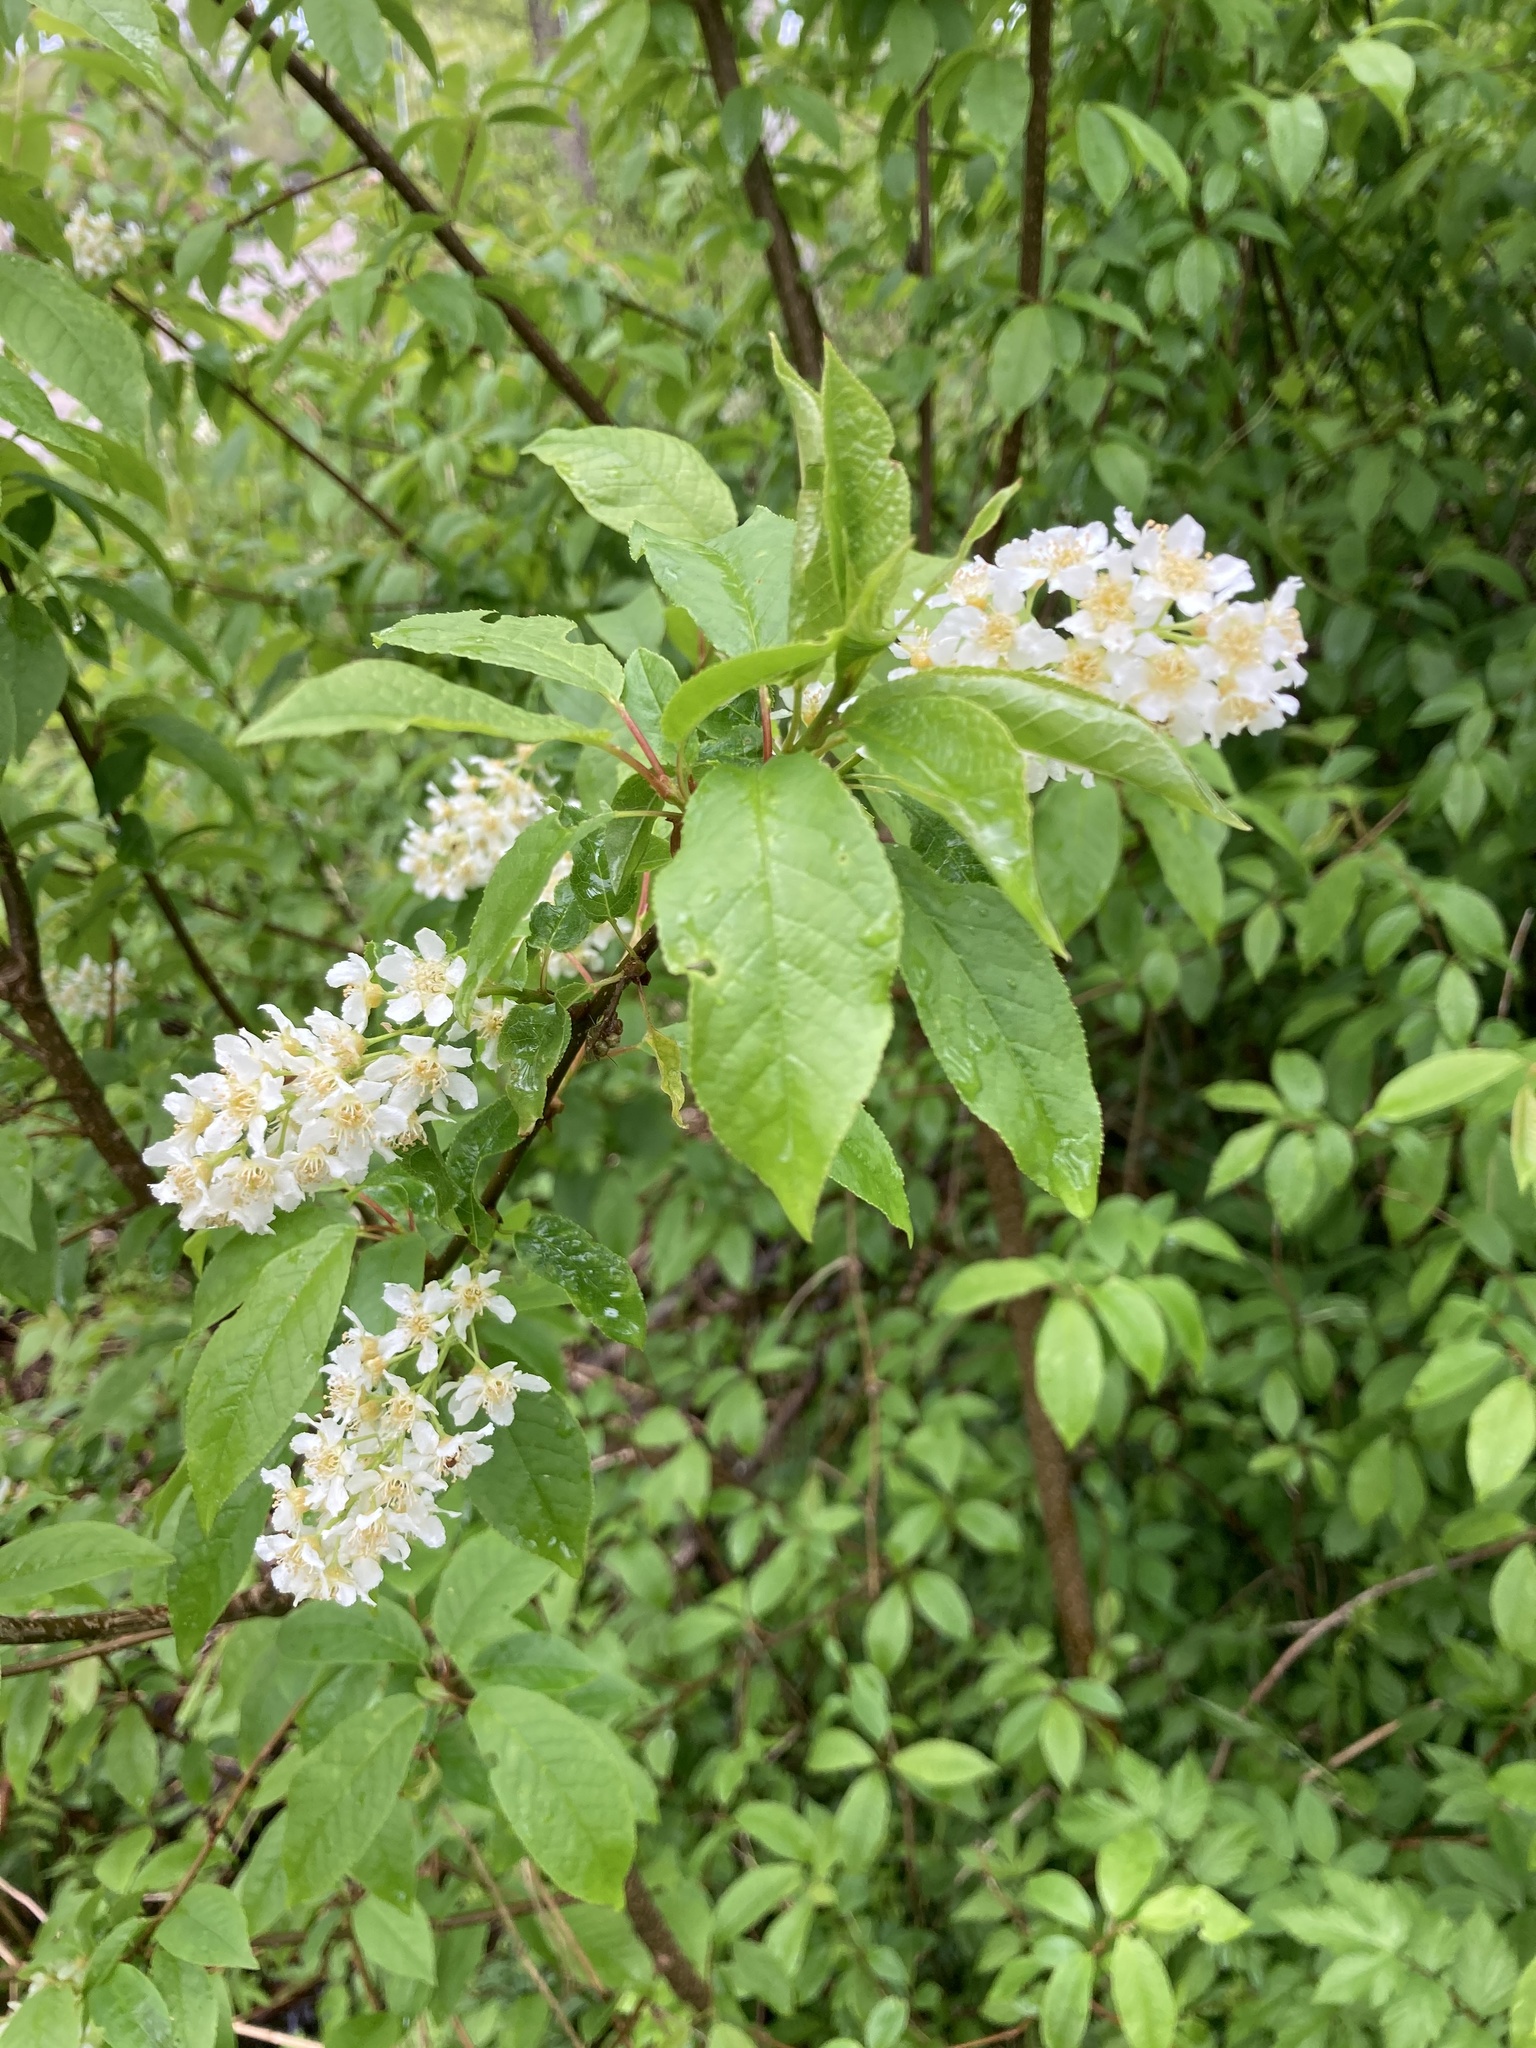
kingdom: Plantae
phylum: Tracheophyta
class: Magnoliopsida
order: Rosales
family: Rosaceae
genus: Prunus
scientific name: Prunus padus
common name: Bird cherry
